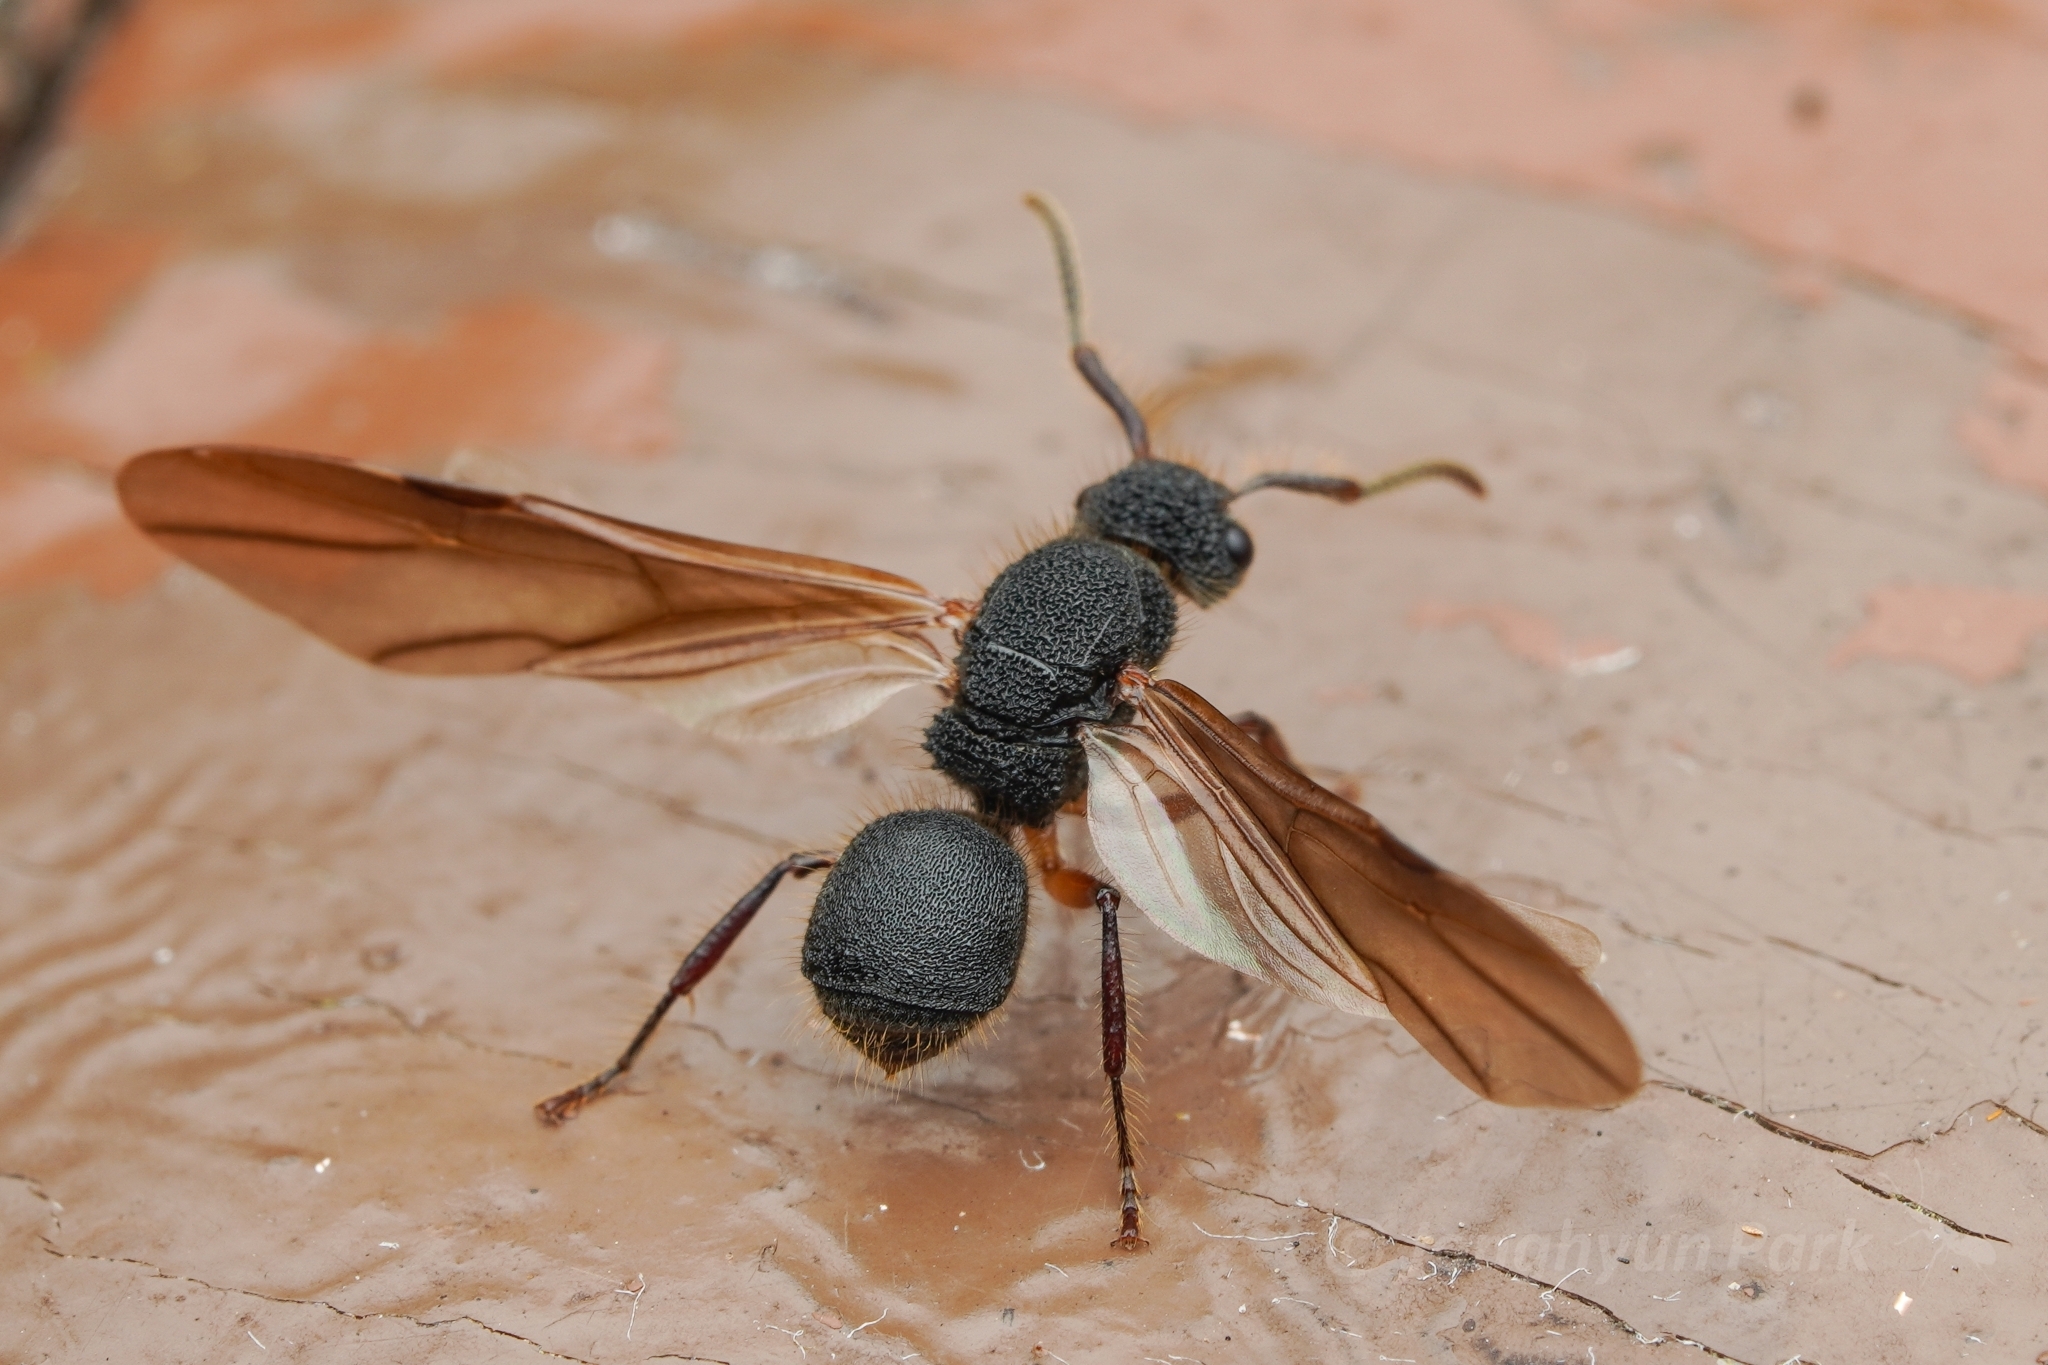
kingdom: Animalia
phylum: Arthropoda
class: Insecta
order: Hymenoptera
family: Formicidae
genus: Echinopla
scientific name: Echinopla tritschleri
